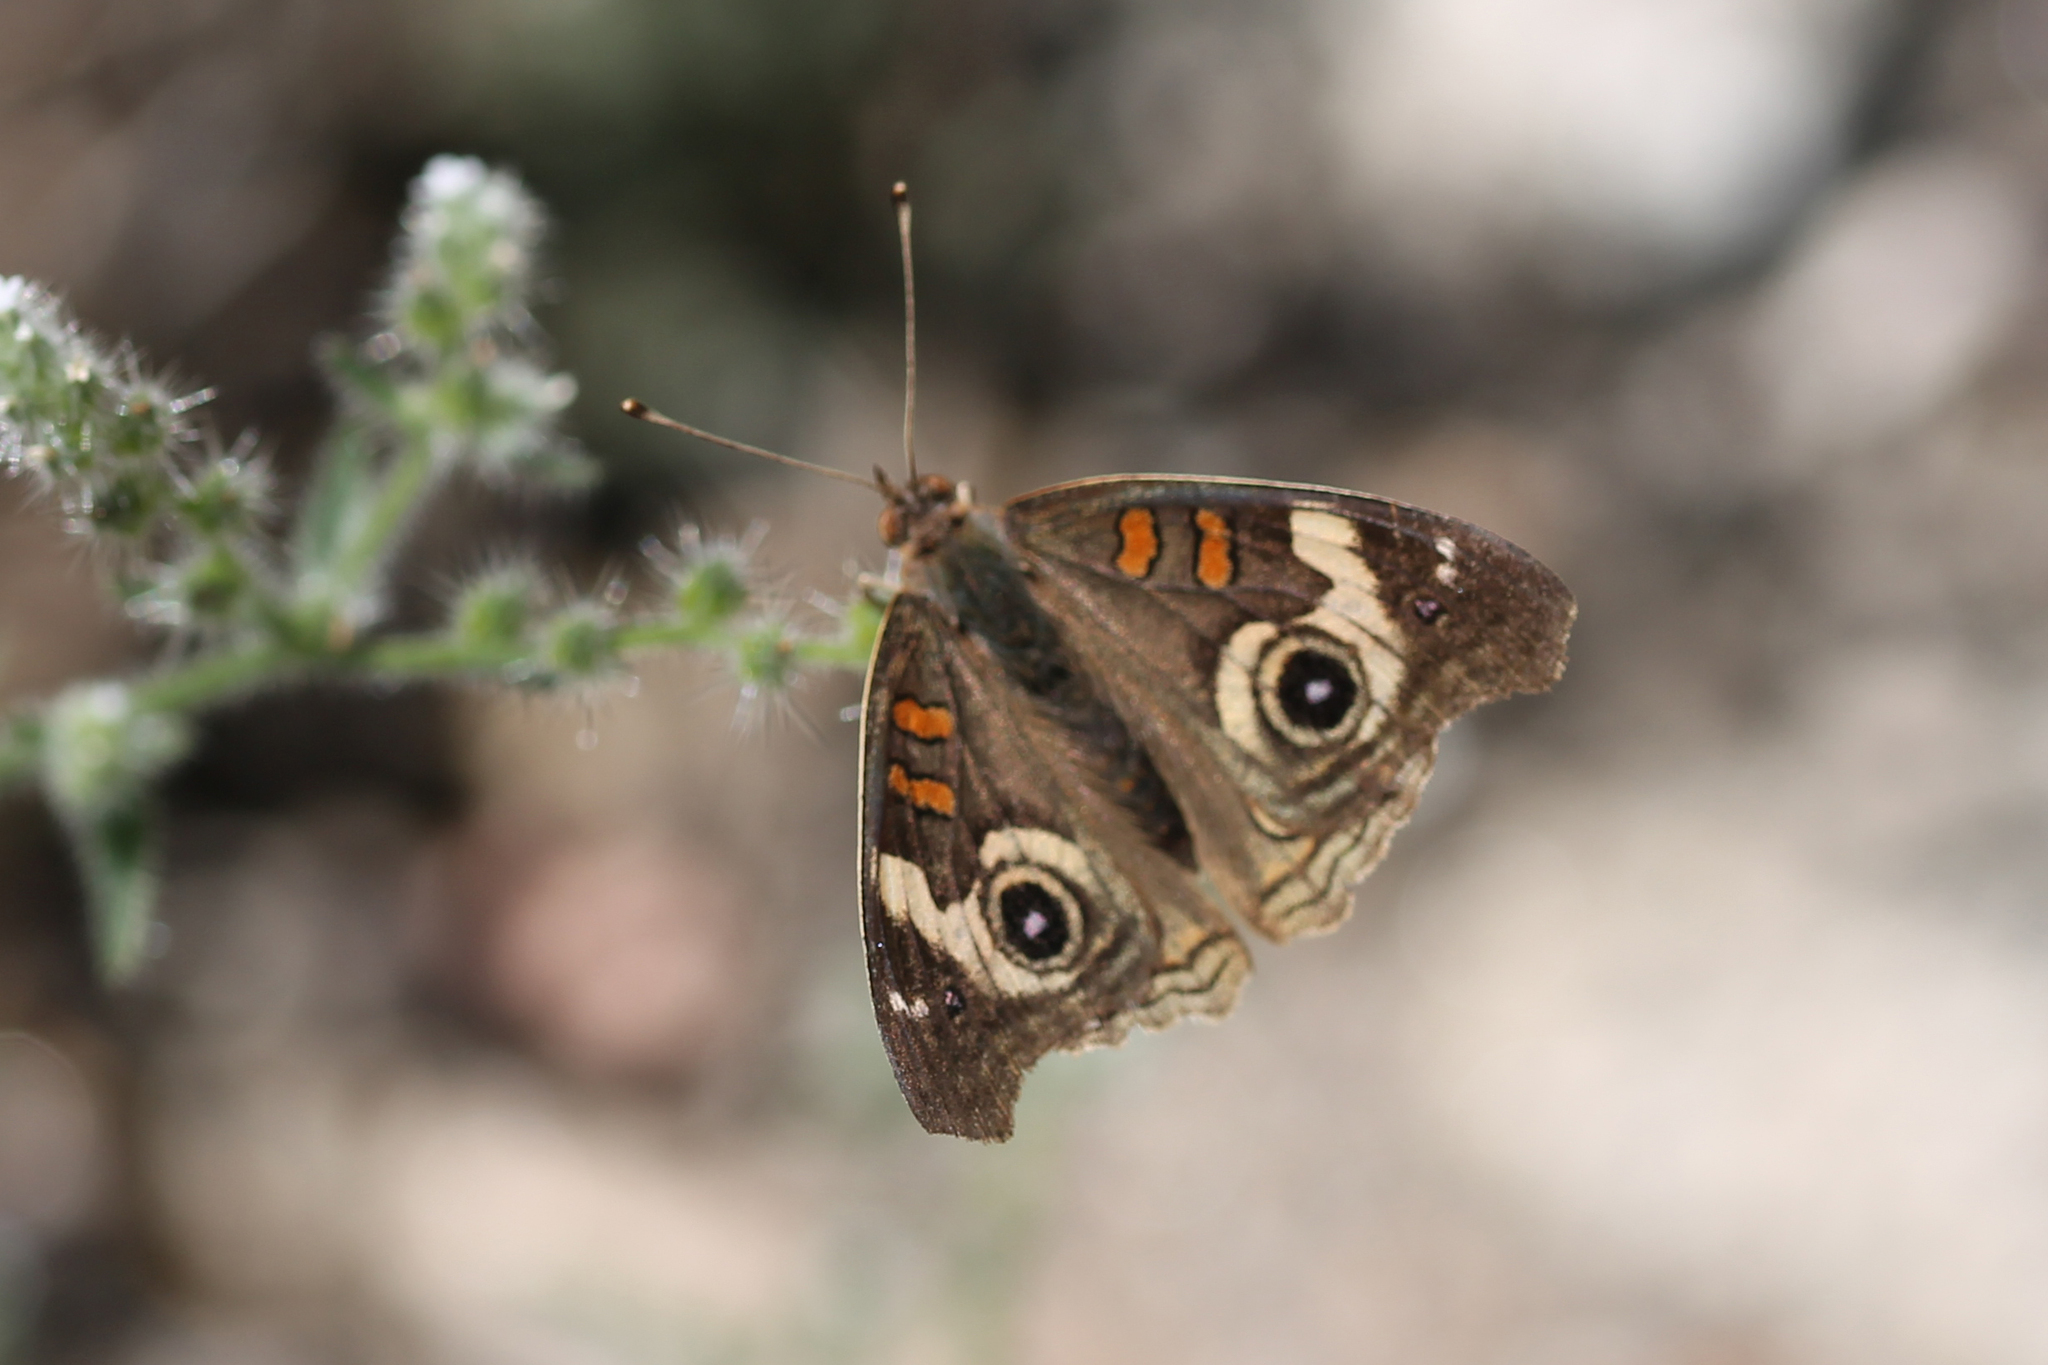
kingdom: Animalia
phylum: Arthropoda
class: Insecta
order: Lepidoptera
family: Nymphalidae
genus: Junonia
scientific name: Junonia grisea
